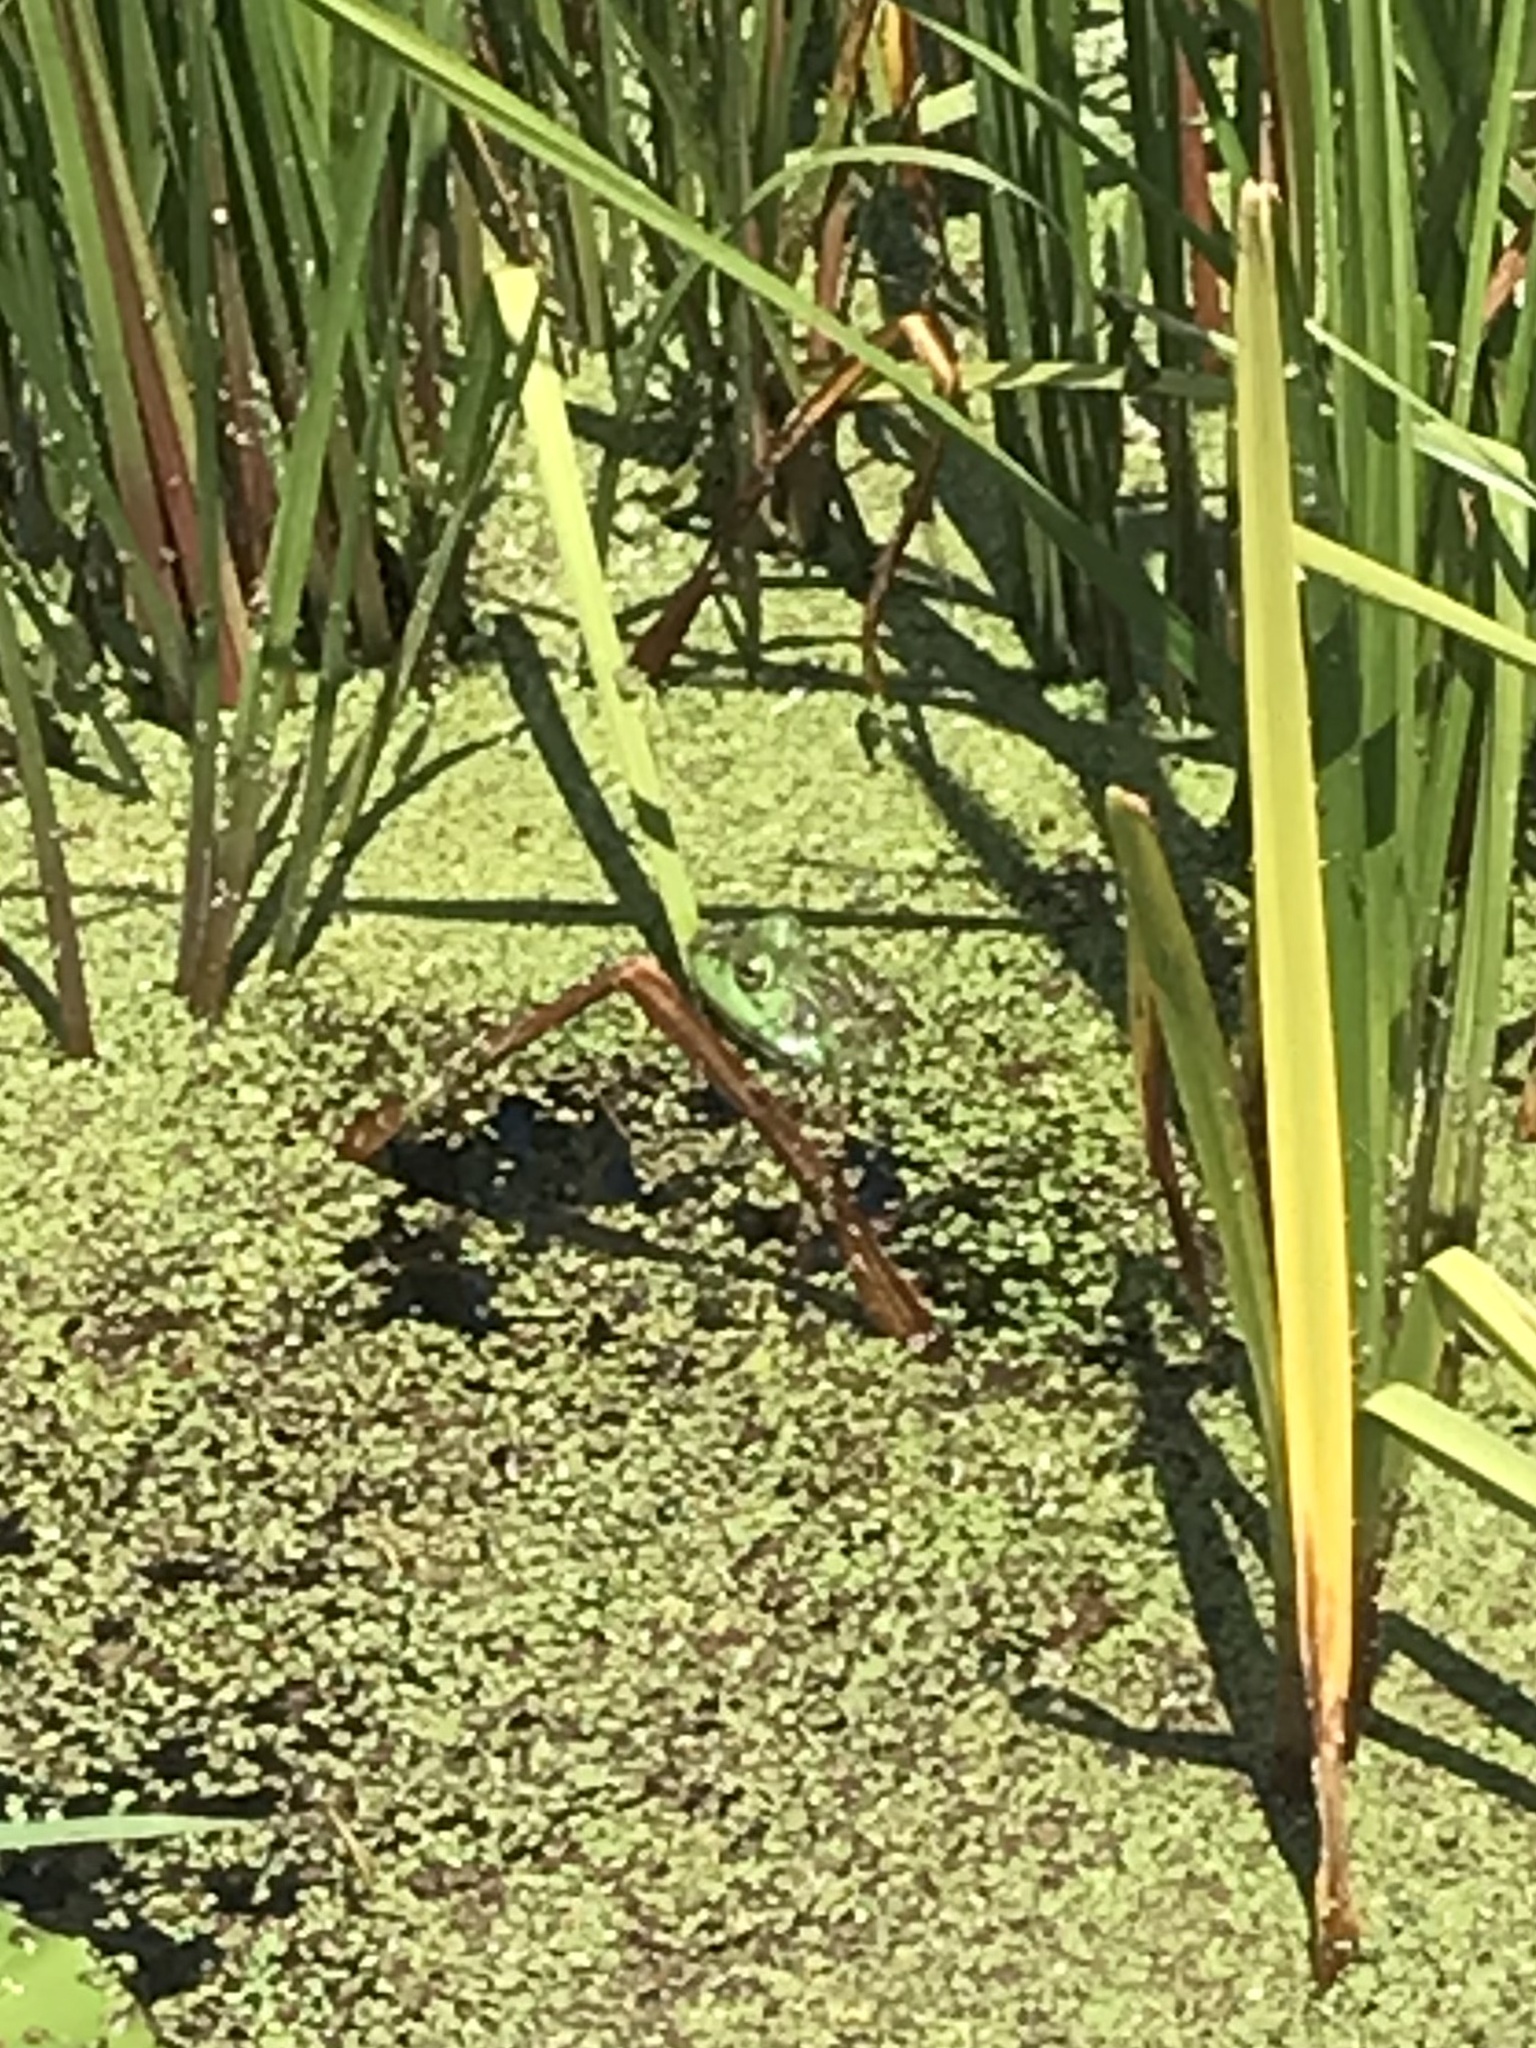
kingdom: Animalia
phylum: Chordata
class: Amphibia
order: Anura
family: Ranidae
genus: Lithobates
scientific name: Lithobates catesbeianus
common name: American bullfrog
